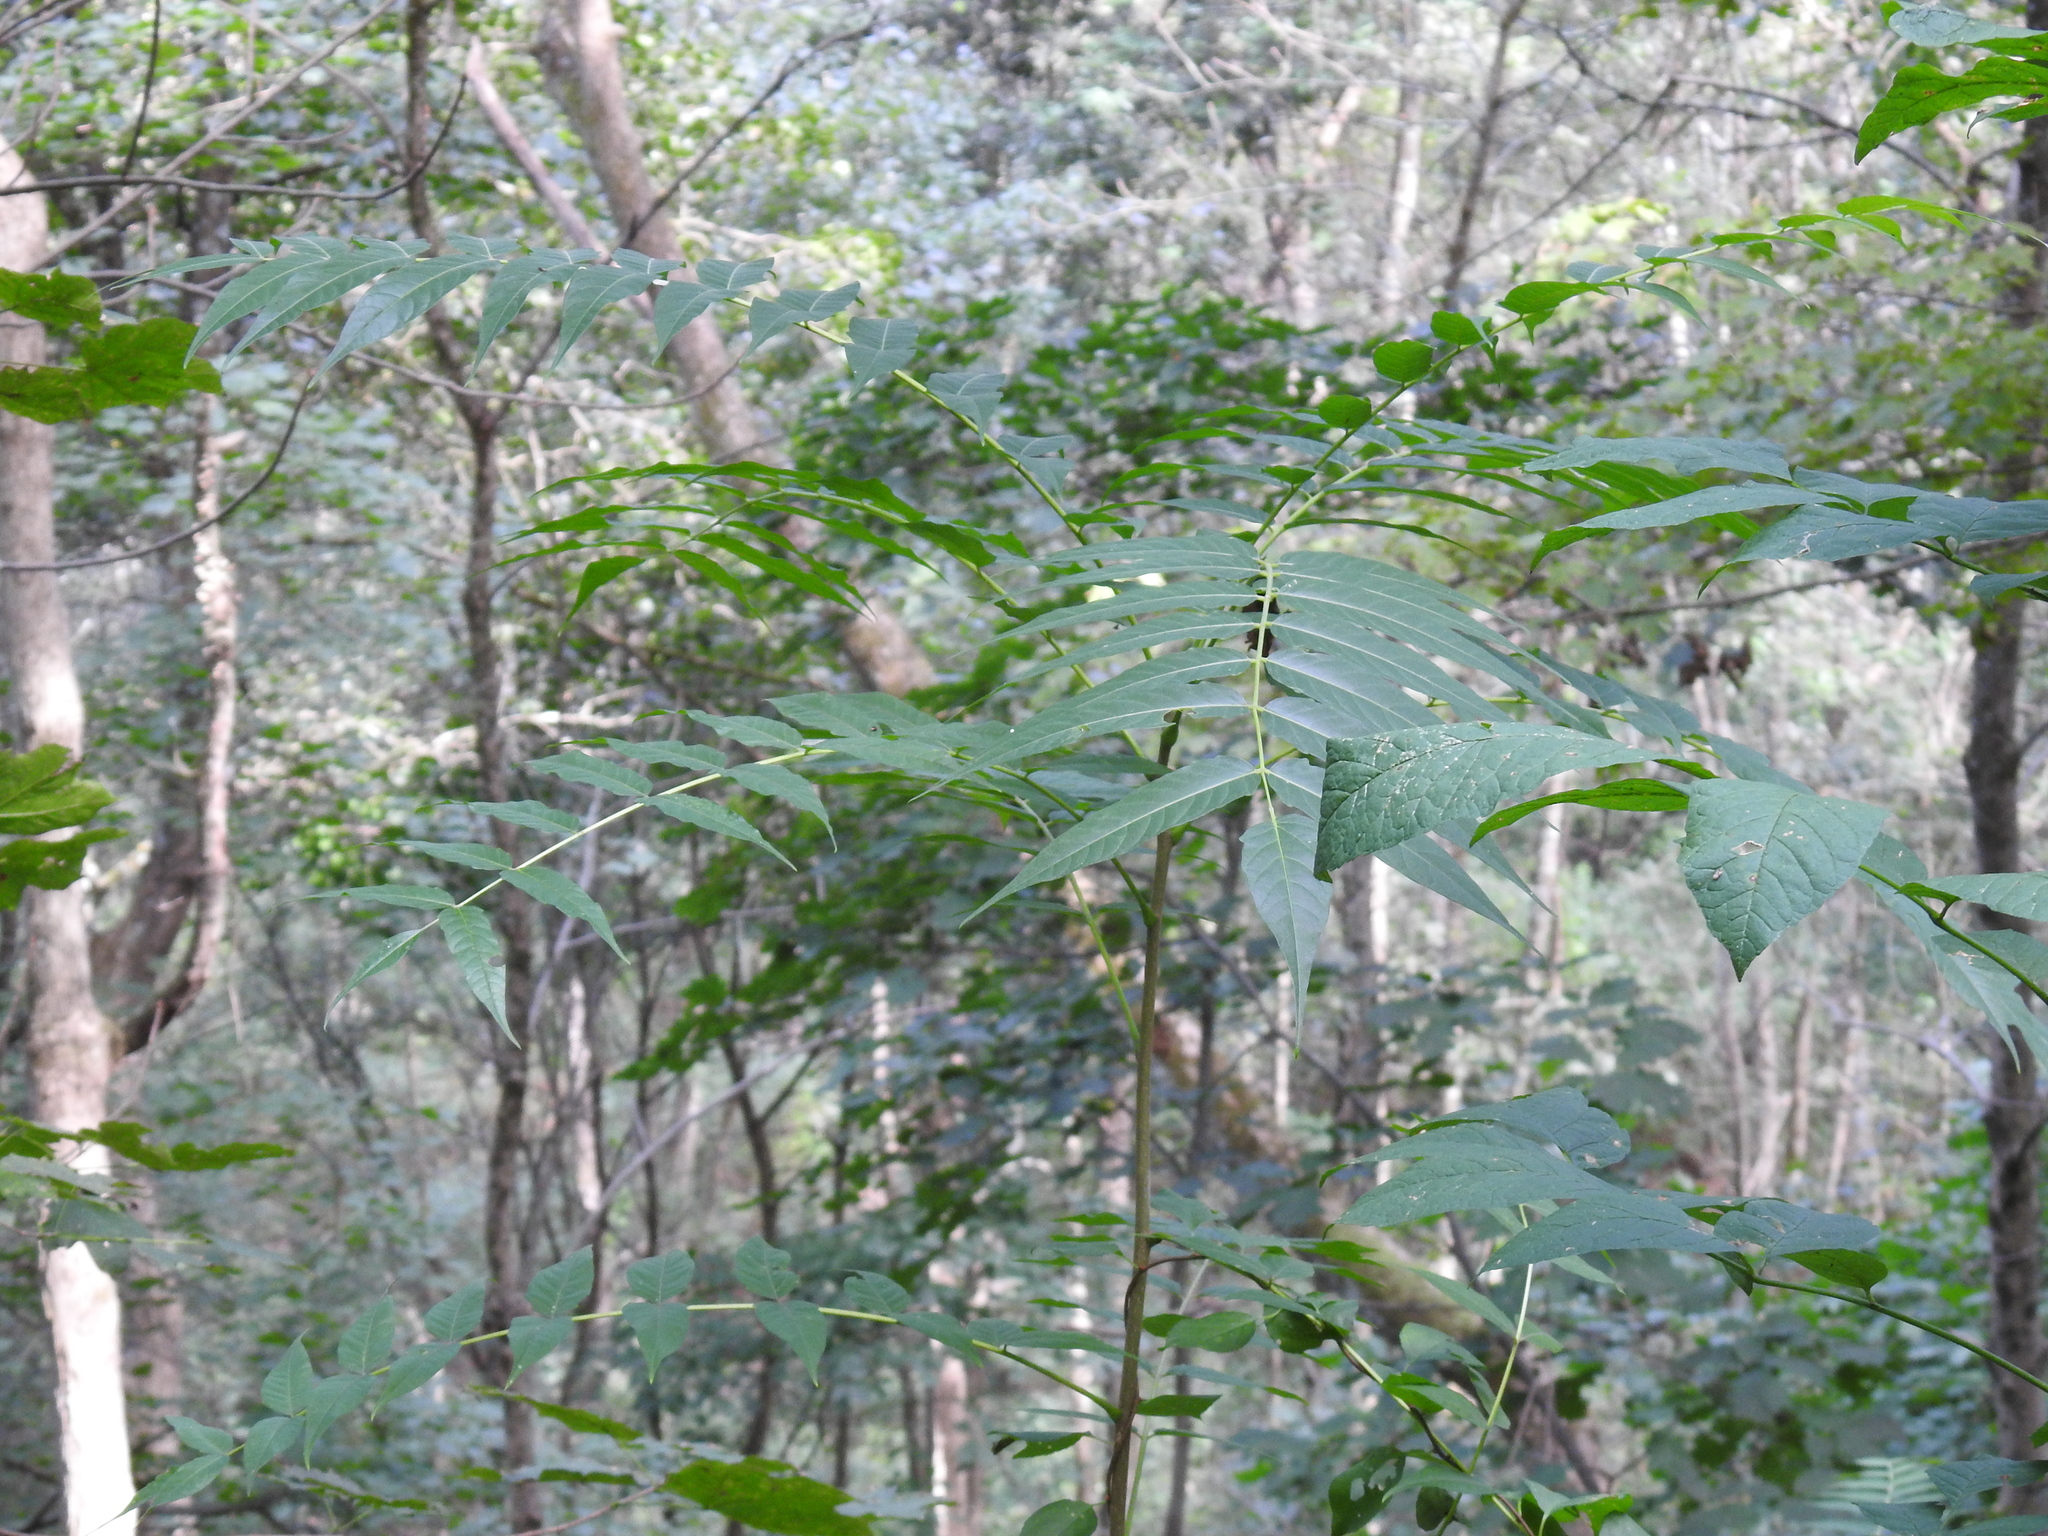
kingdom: Plantae
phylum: Tracheophyta
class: Magnoliopsida
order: Sapindales
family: Simaroubaceae
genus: Ailanthus
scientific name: Ailanthus altissima
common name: Tree-of-heaven
